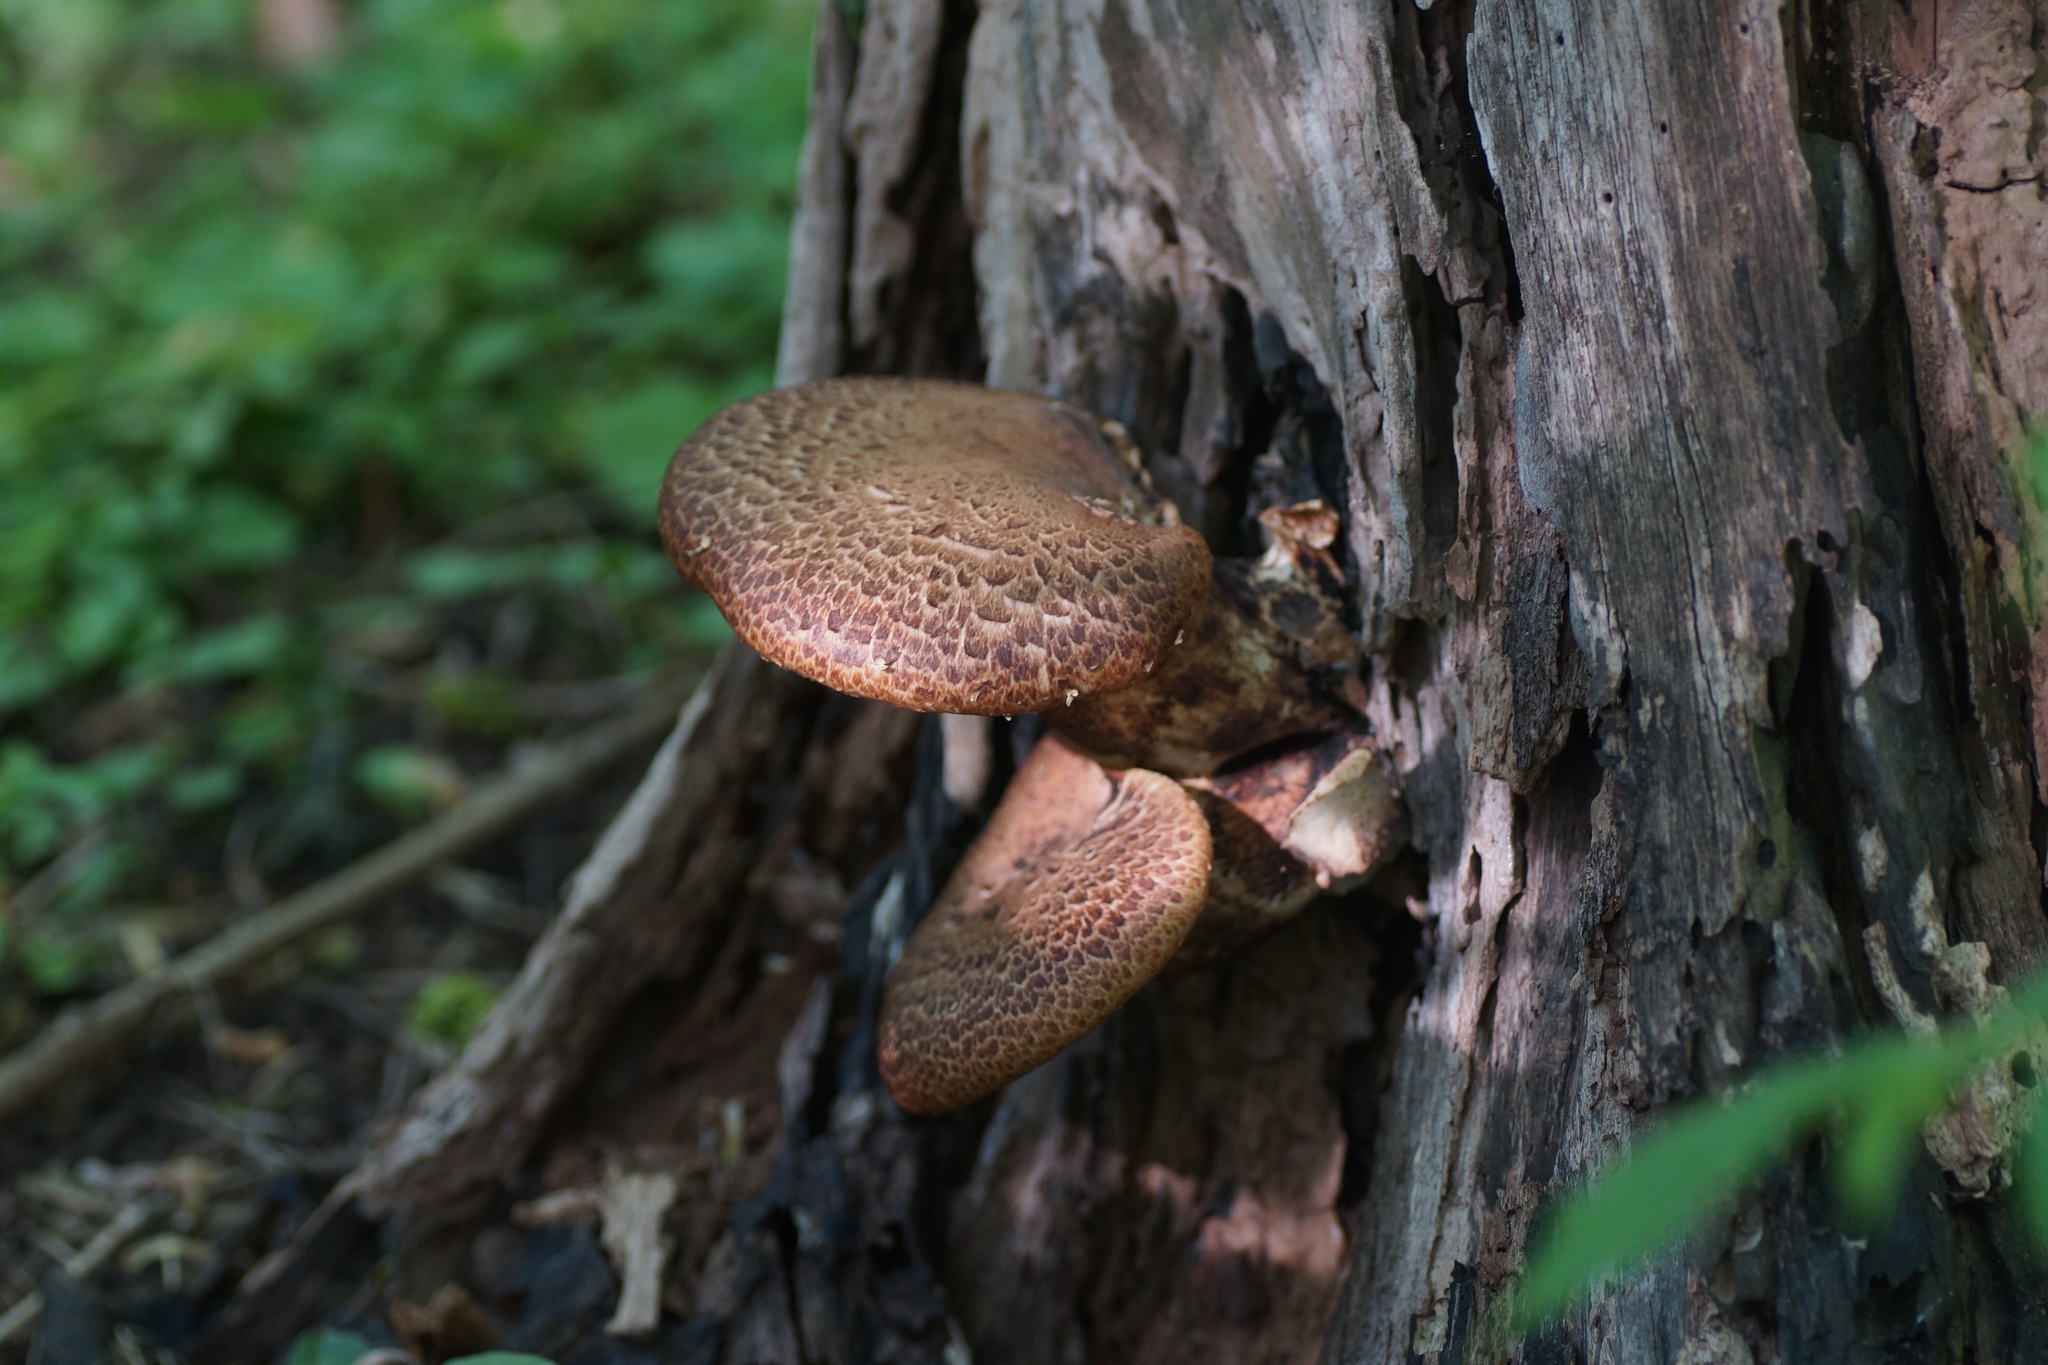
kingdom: Fungi
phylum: Basidiomycota
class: Agaricomycetes
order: Polyporales
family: Polyporaceae
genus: Cerioporus
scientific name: Cerioporus squamosus
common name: Dryad's saddle
